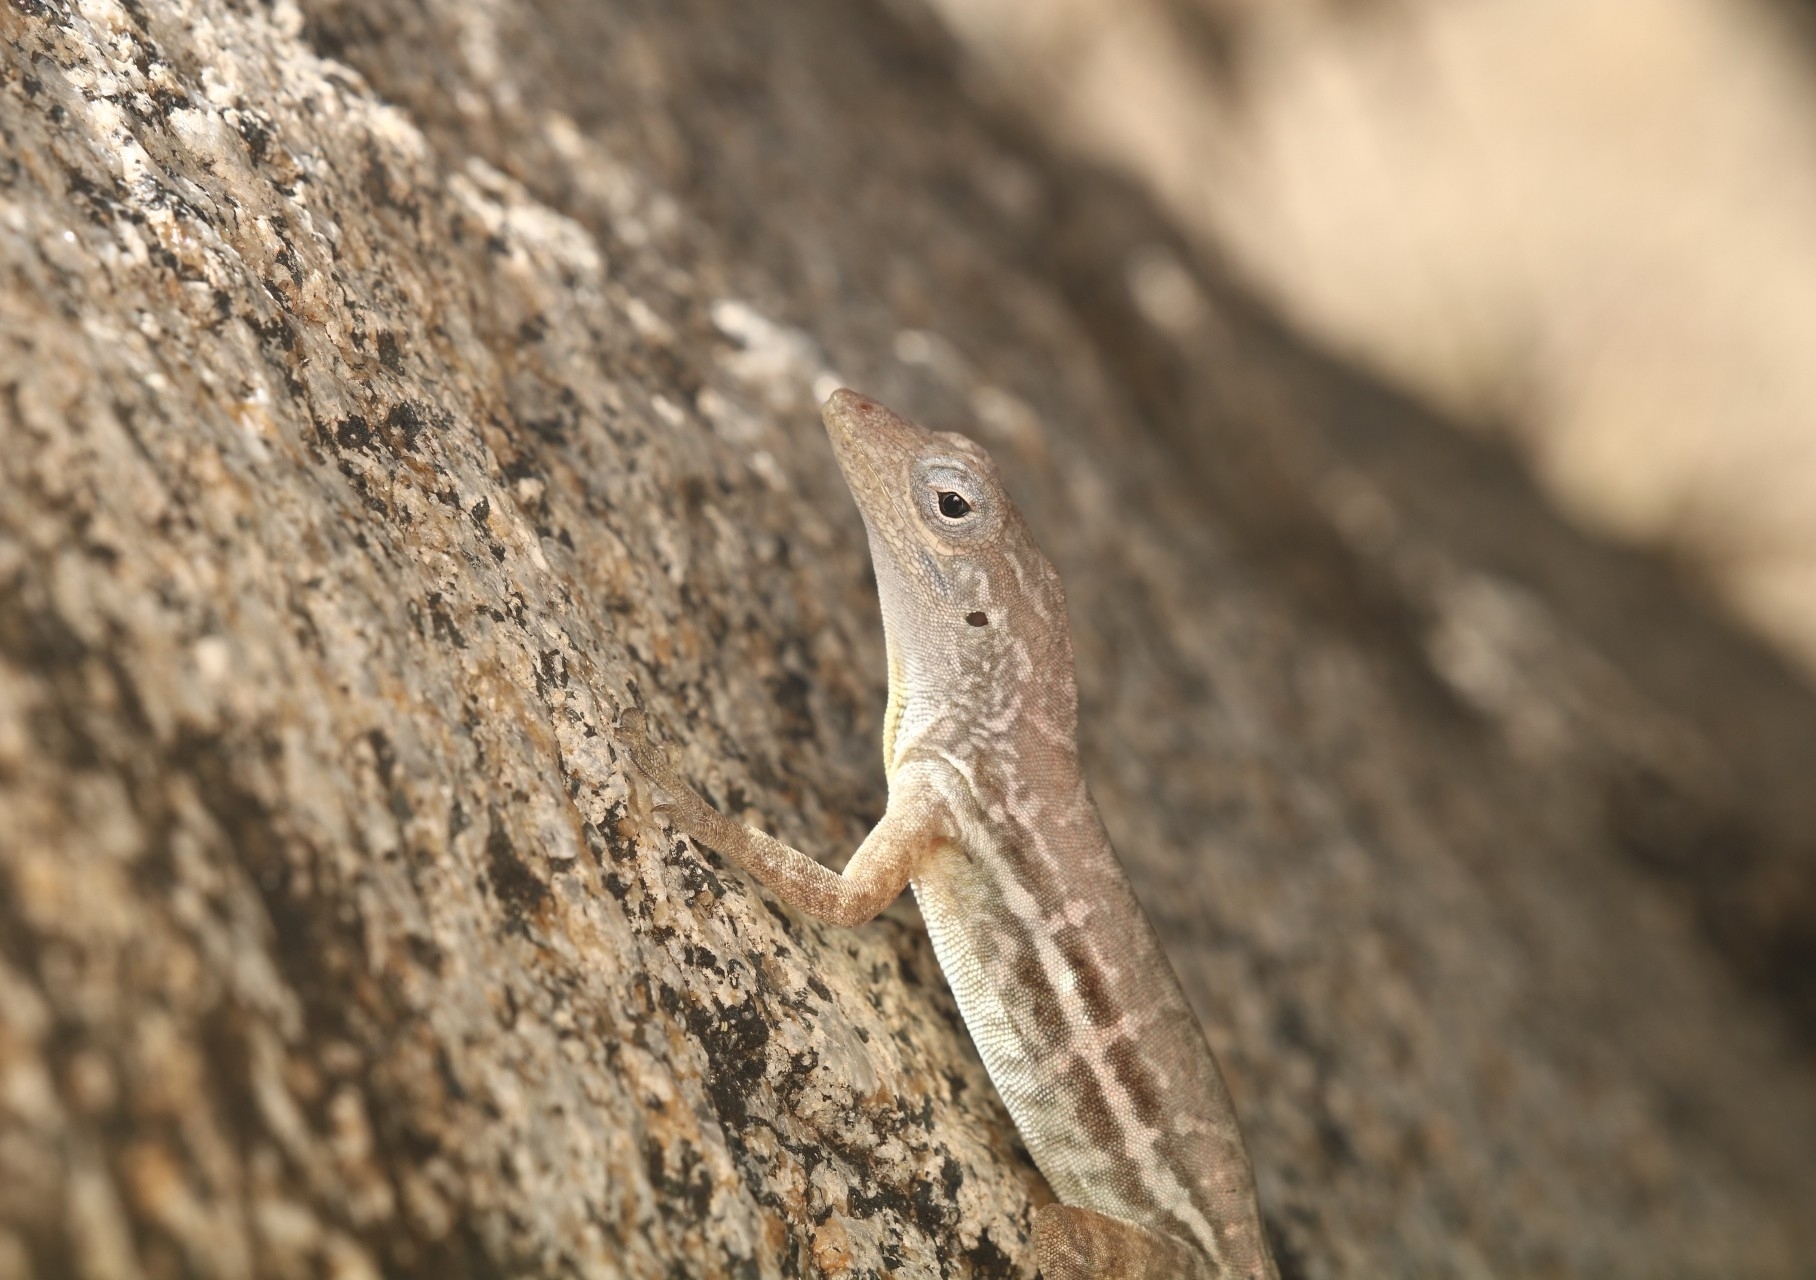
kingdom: Animalia
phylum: Chordata
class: Squamata
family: Dactyloidae
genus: Anolis
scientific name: Anolis lineatus
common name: Striped anole
